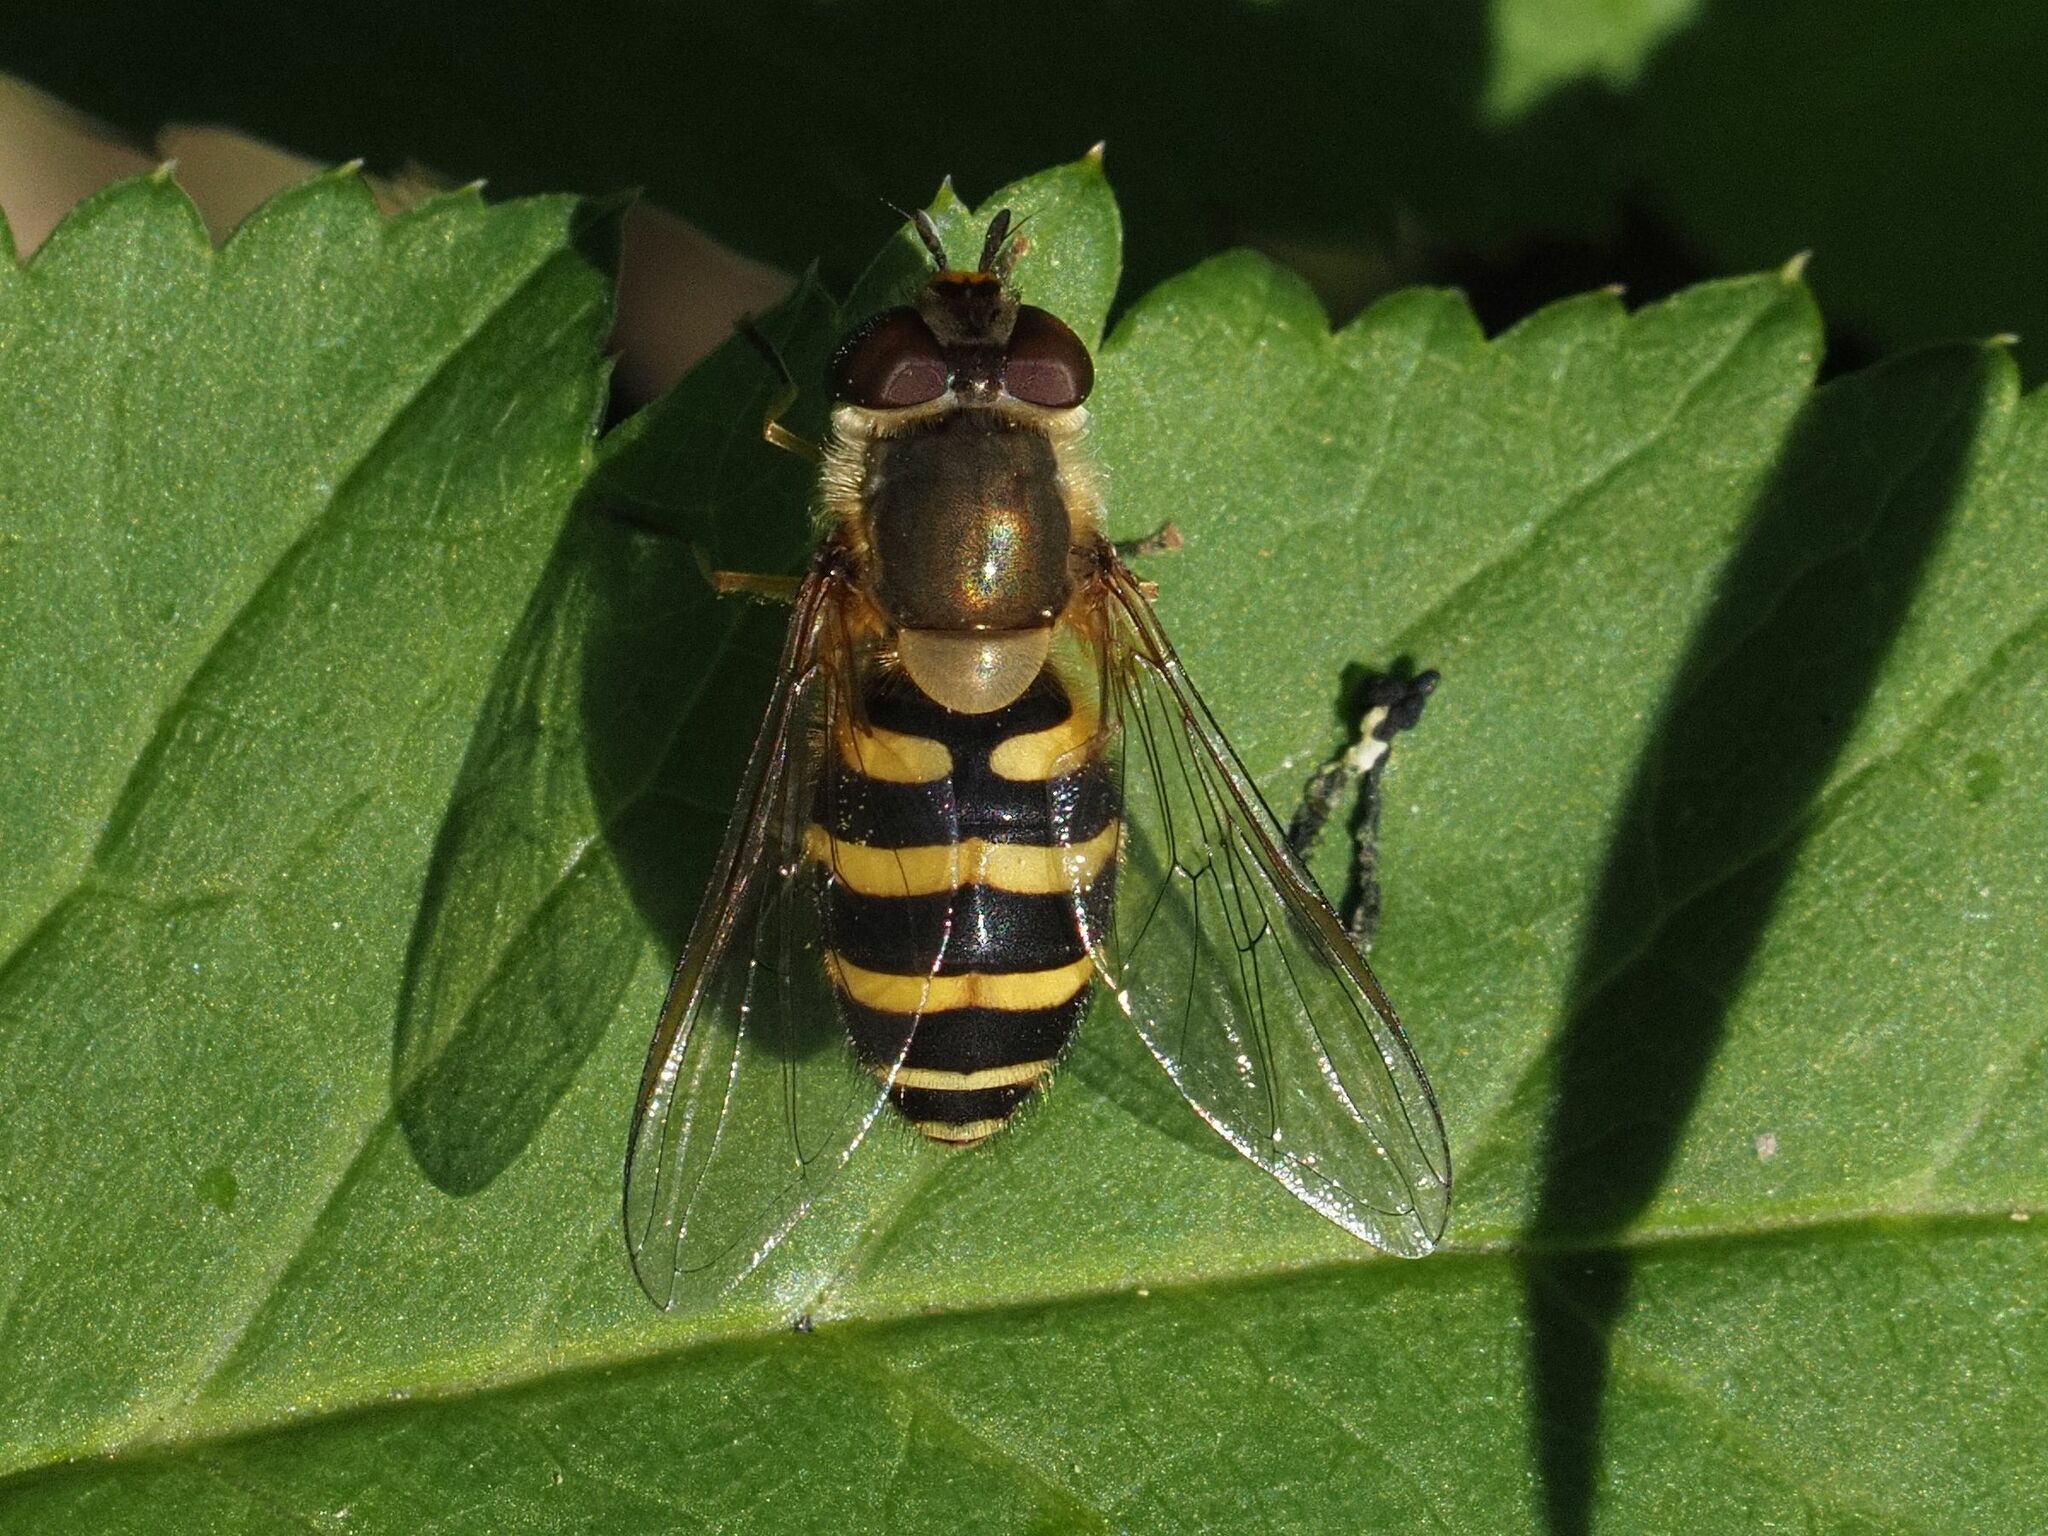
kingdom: Animalia
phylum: Arthropoda
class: Insecta
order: Diptera
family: Syrphidae
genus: Syrphus
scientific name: Syrphus torvus
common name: Hairy-eyed flower fly
